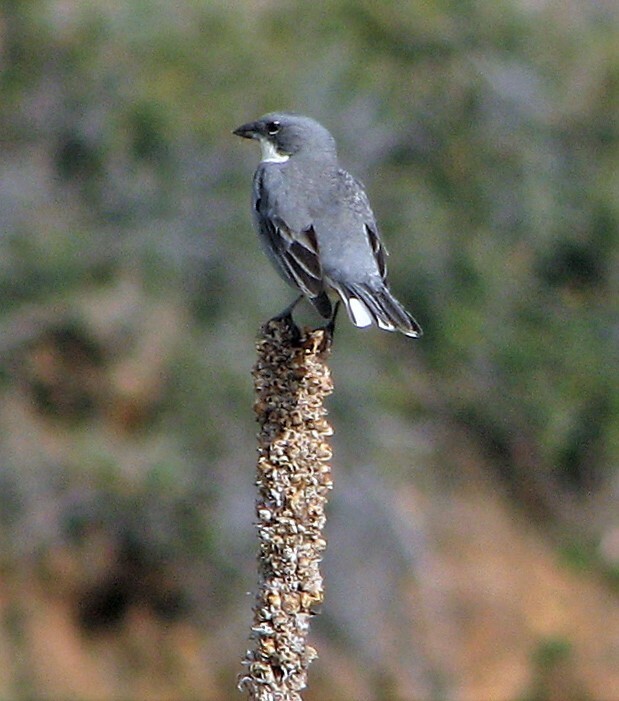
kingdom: Animalia
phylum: Chordata
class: Aves
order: Passeriformes
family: Thraupidae
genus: Diuca
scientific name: Diuca diuca
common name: Common diuca finch
